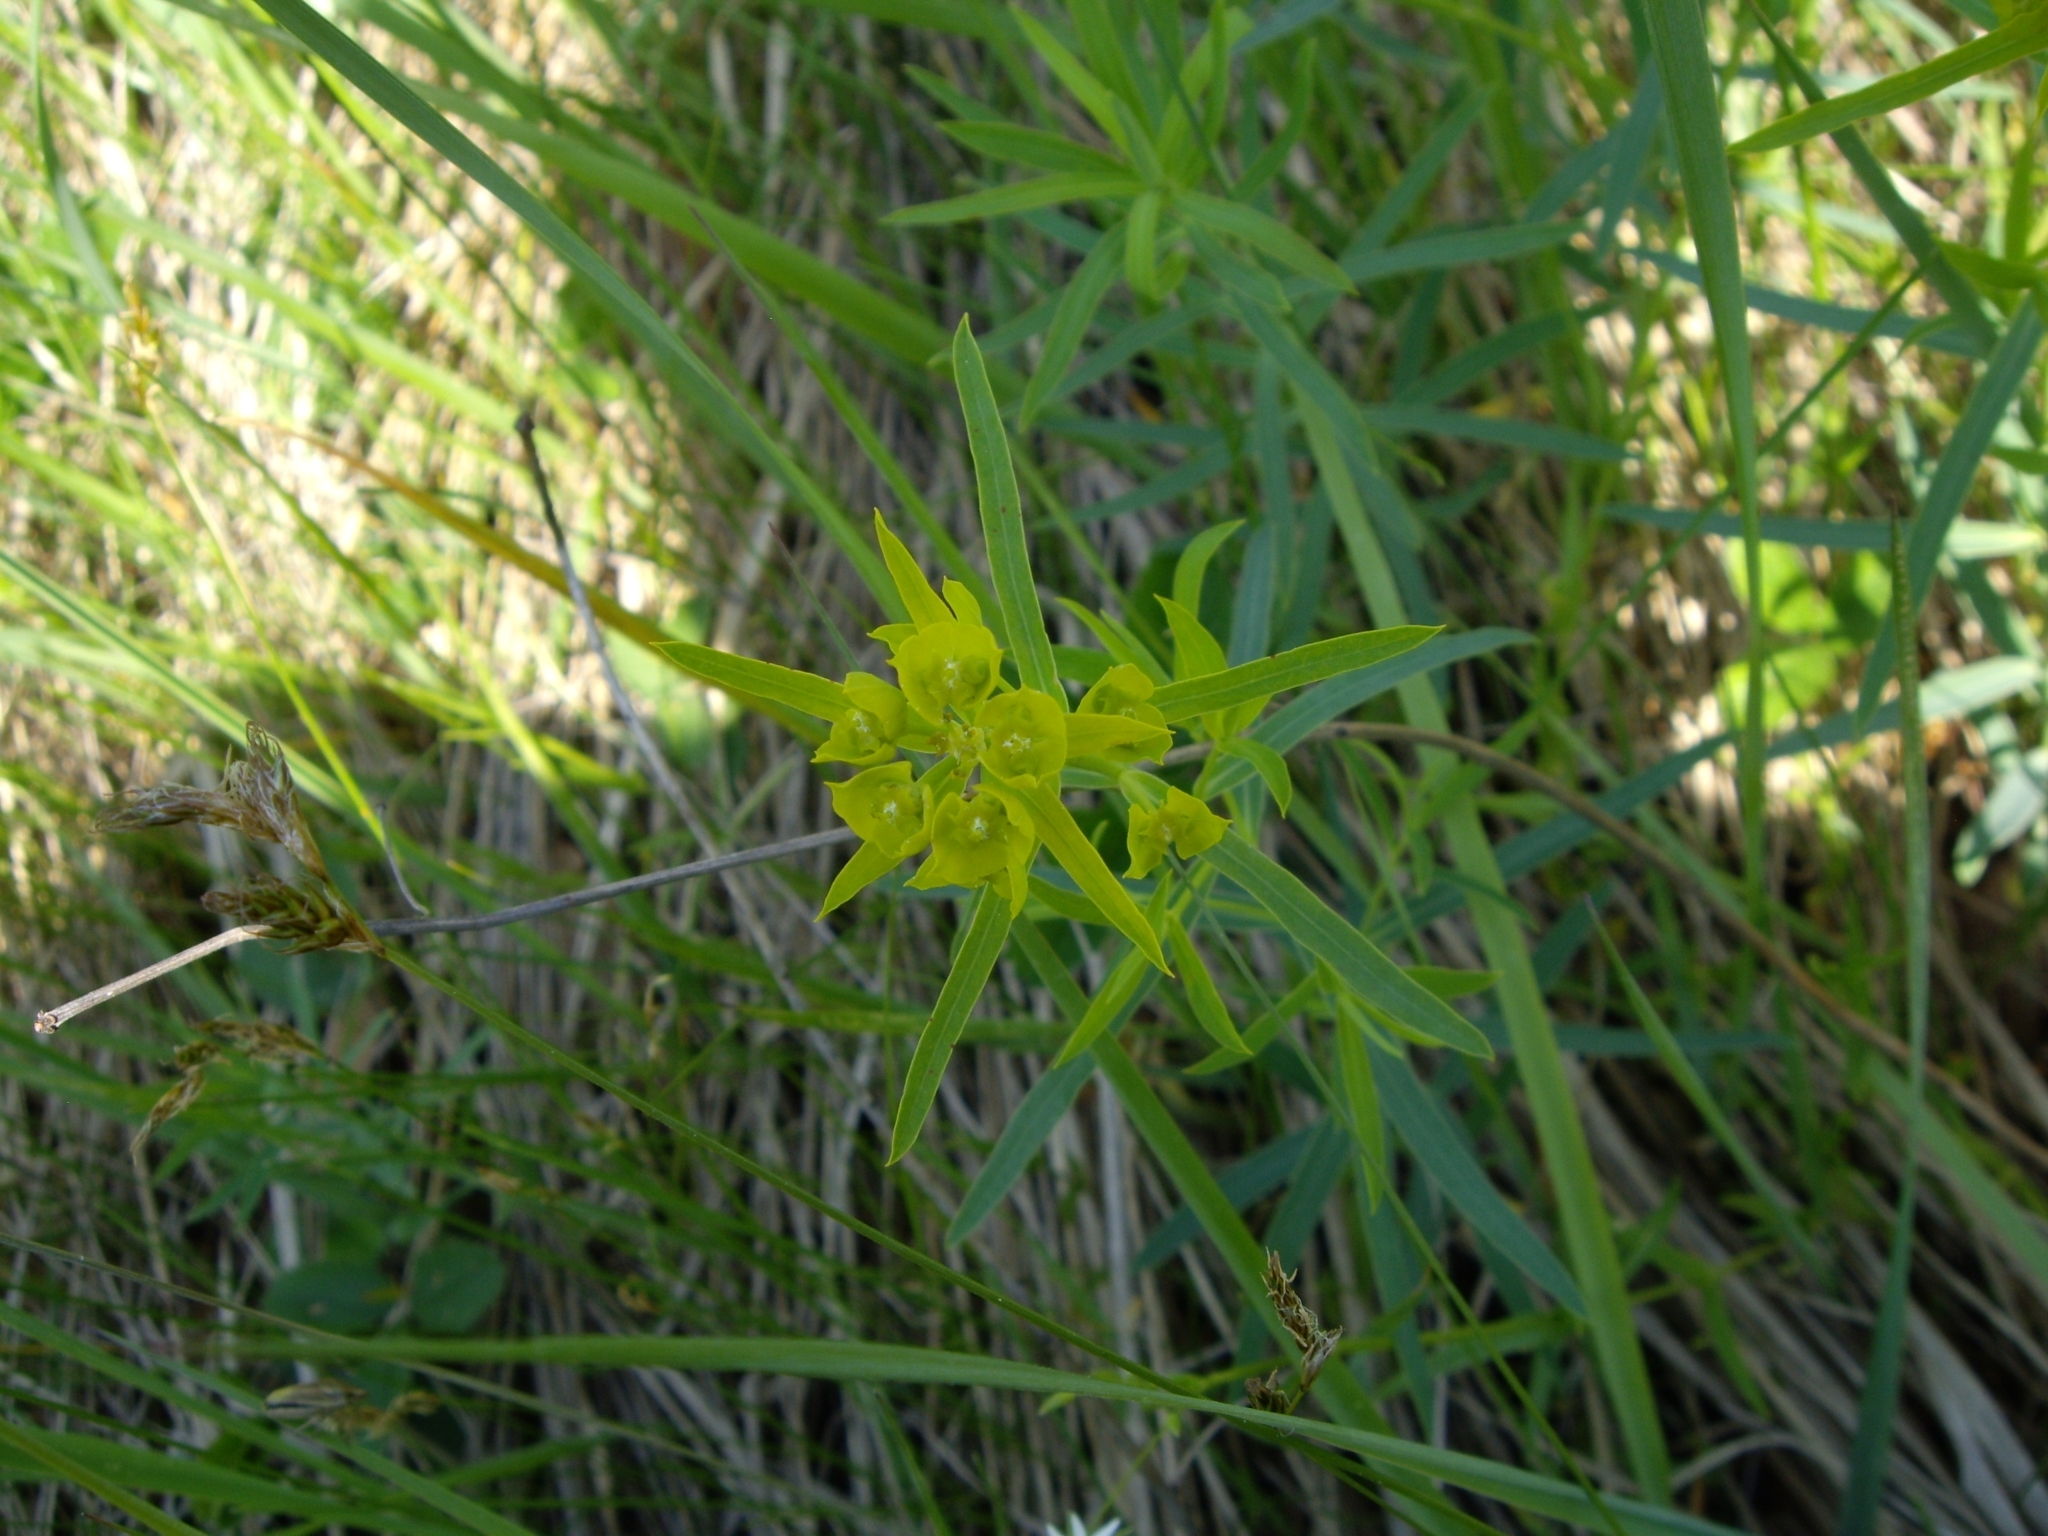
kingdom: Plantae
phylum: Tracheophyta
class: Magnoliopsida
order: Malpighiales
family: Euphorbiaceae
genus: Euphorbia
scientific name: Euphorbia virgata
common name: Leafy spurge
